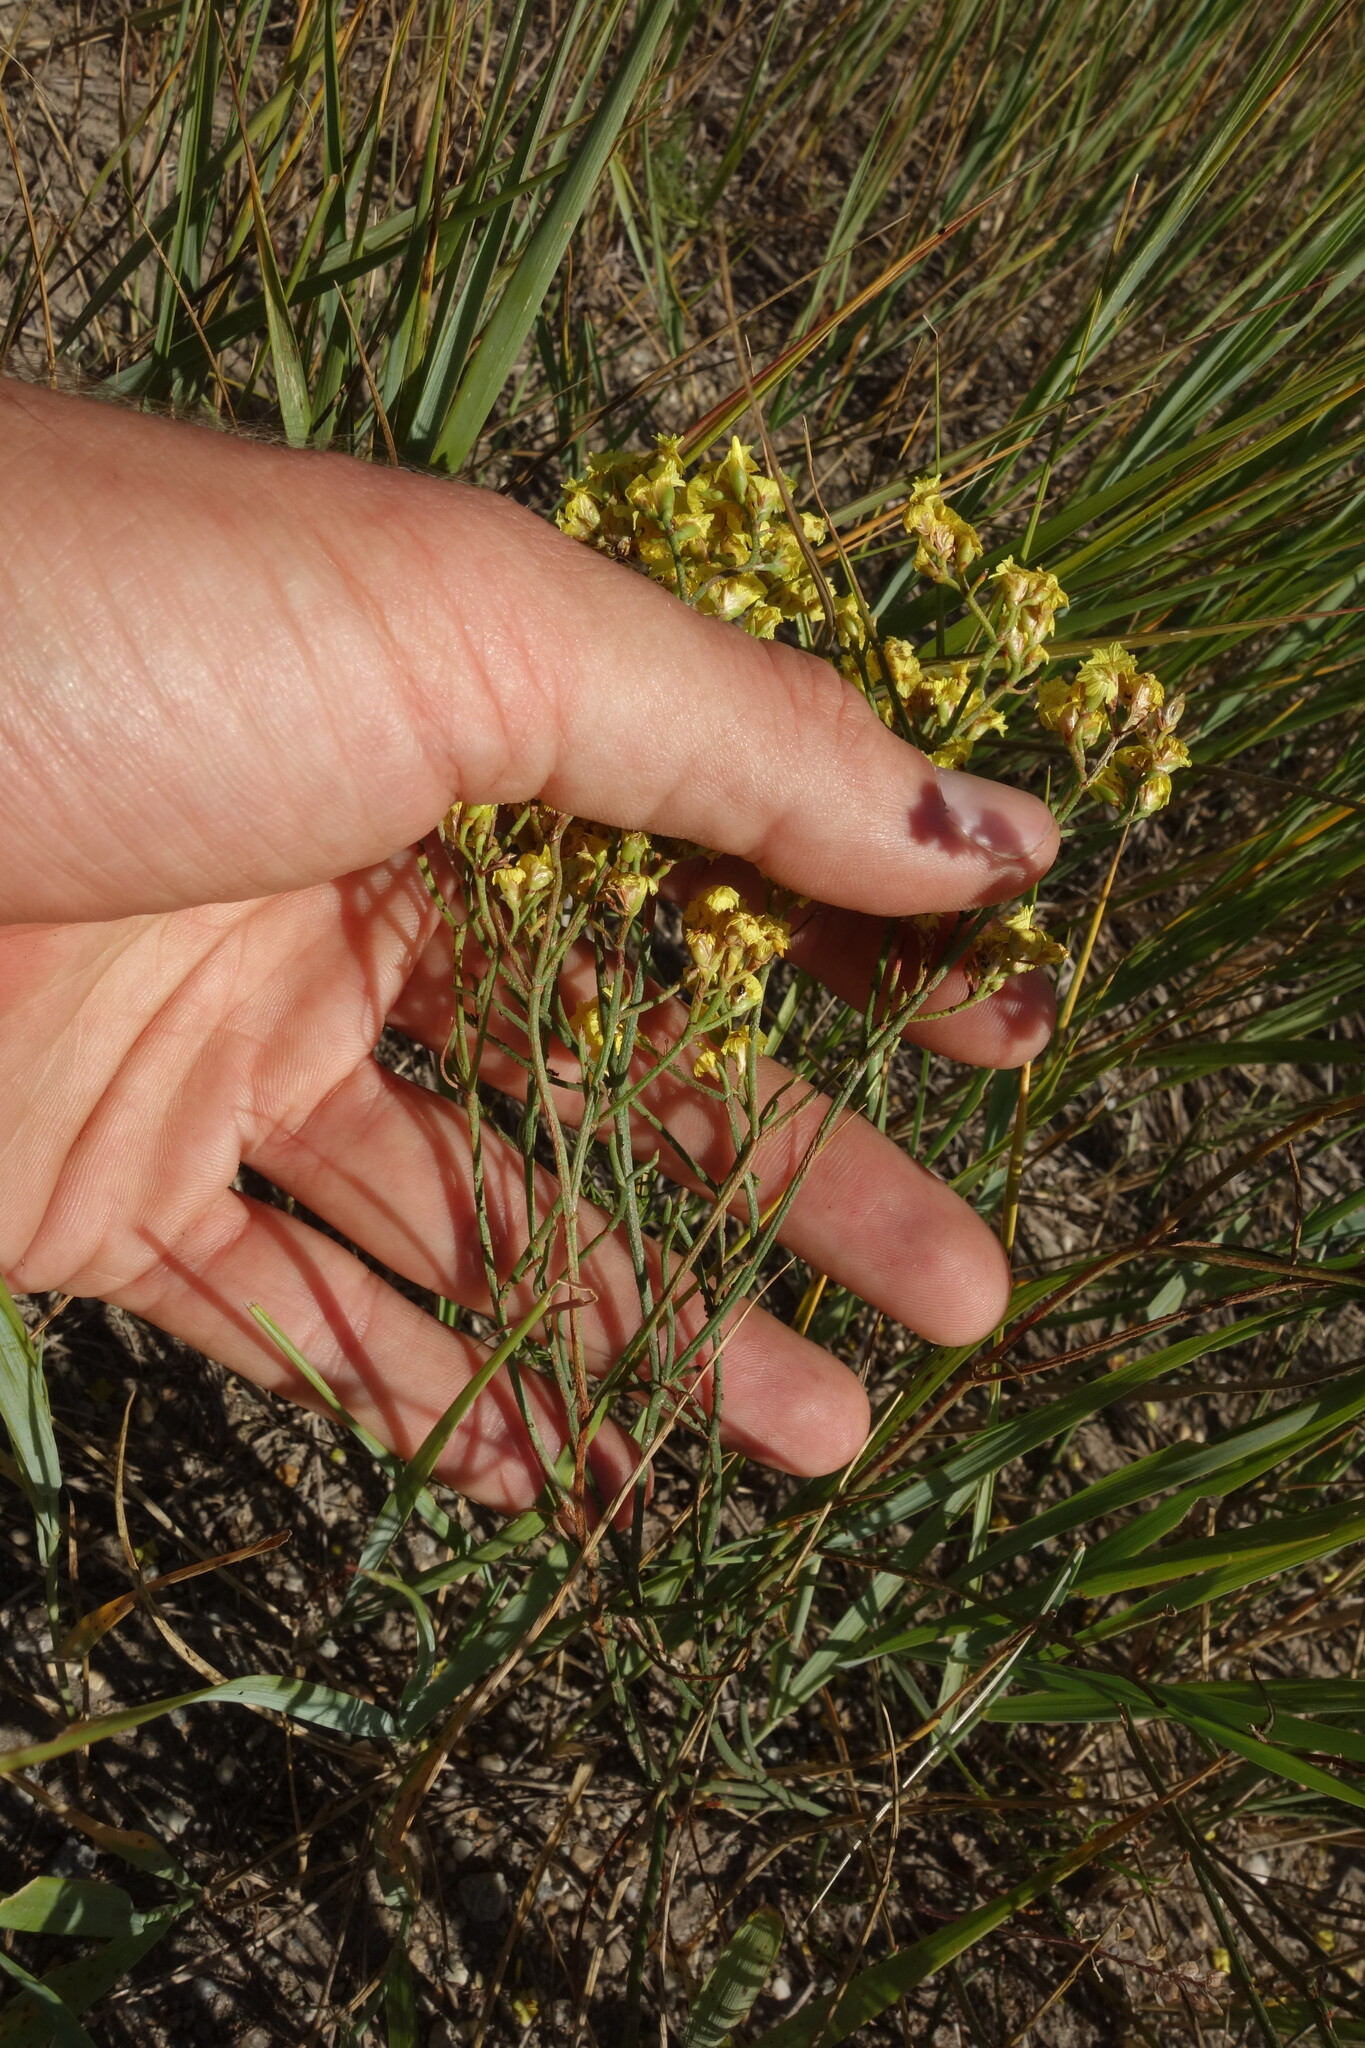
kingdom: Plantae
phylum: Tracheophyta
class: Magnoliopsida
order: Caryophyllales
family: Plumbaginaceae
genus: Limonium
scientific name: Limonium aureum
